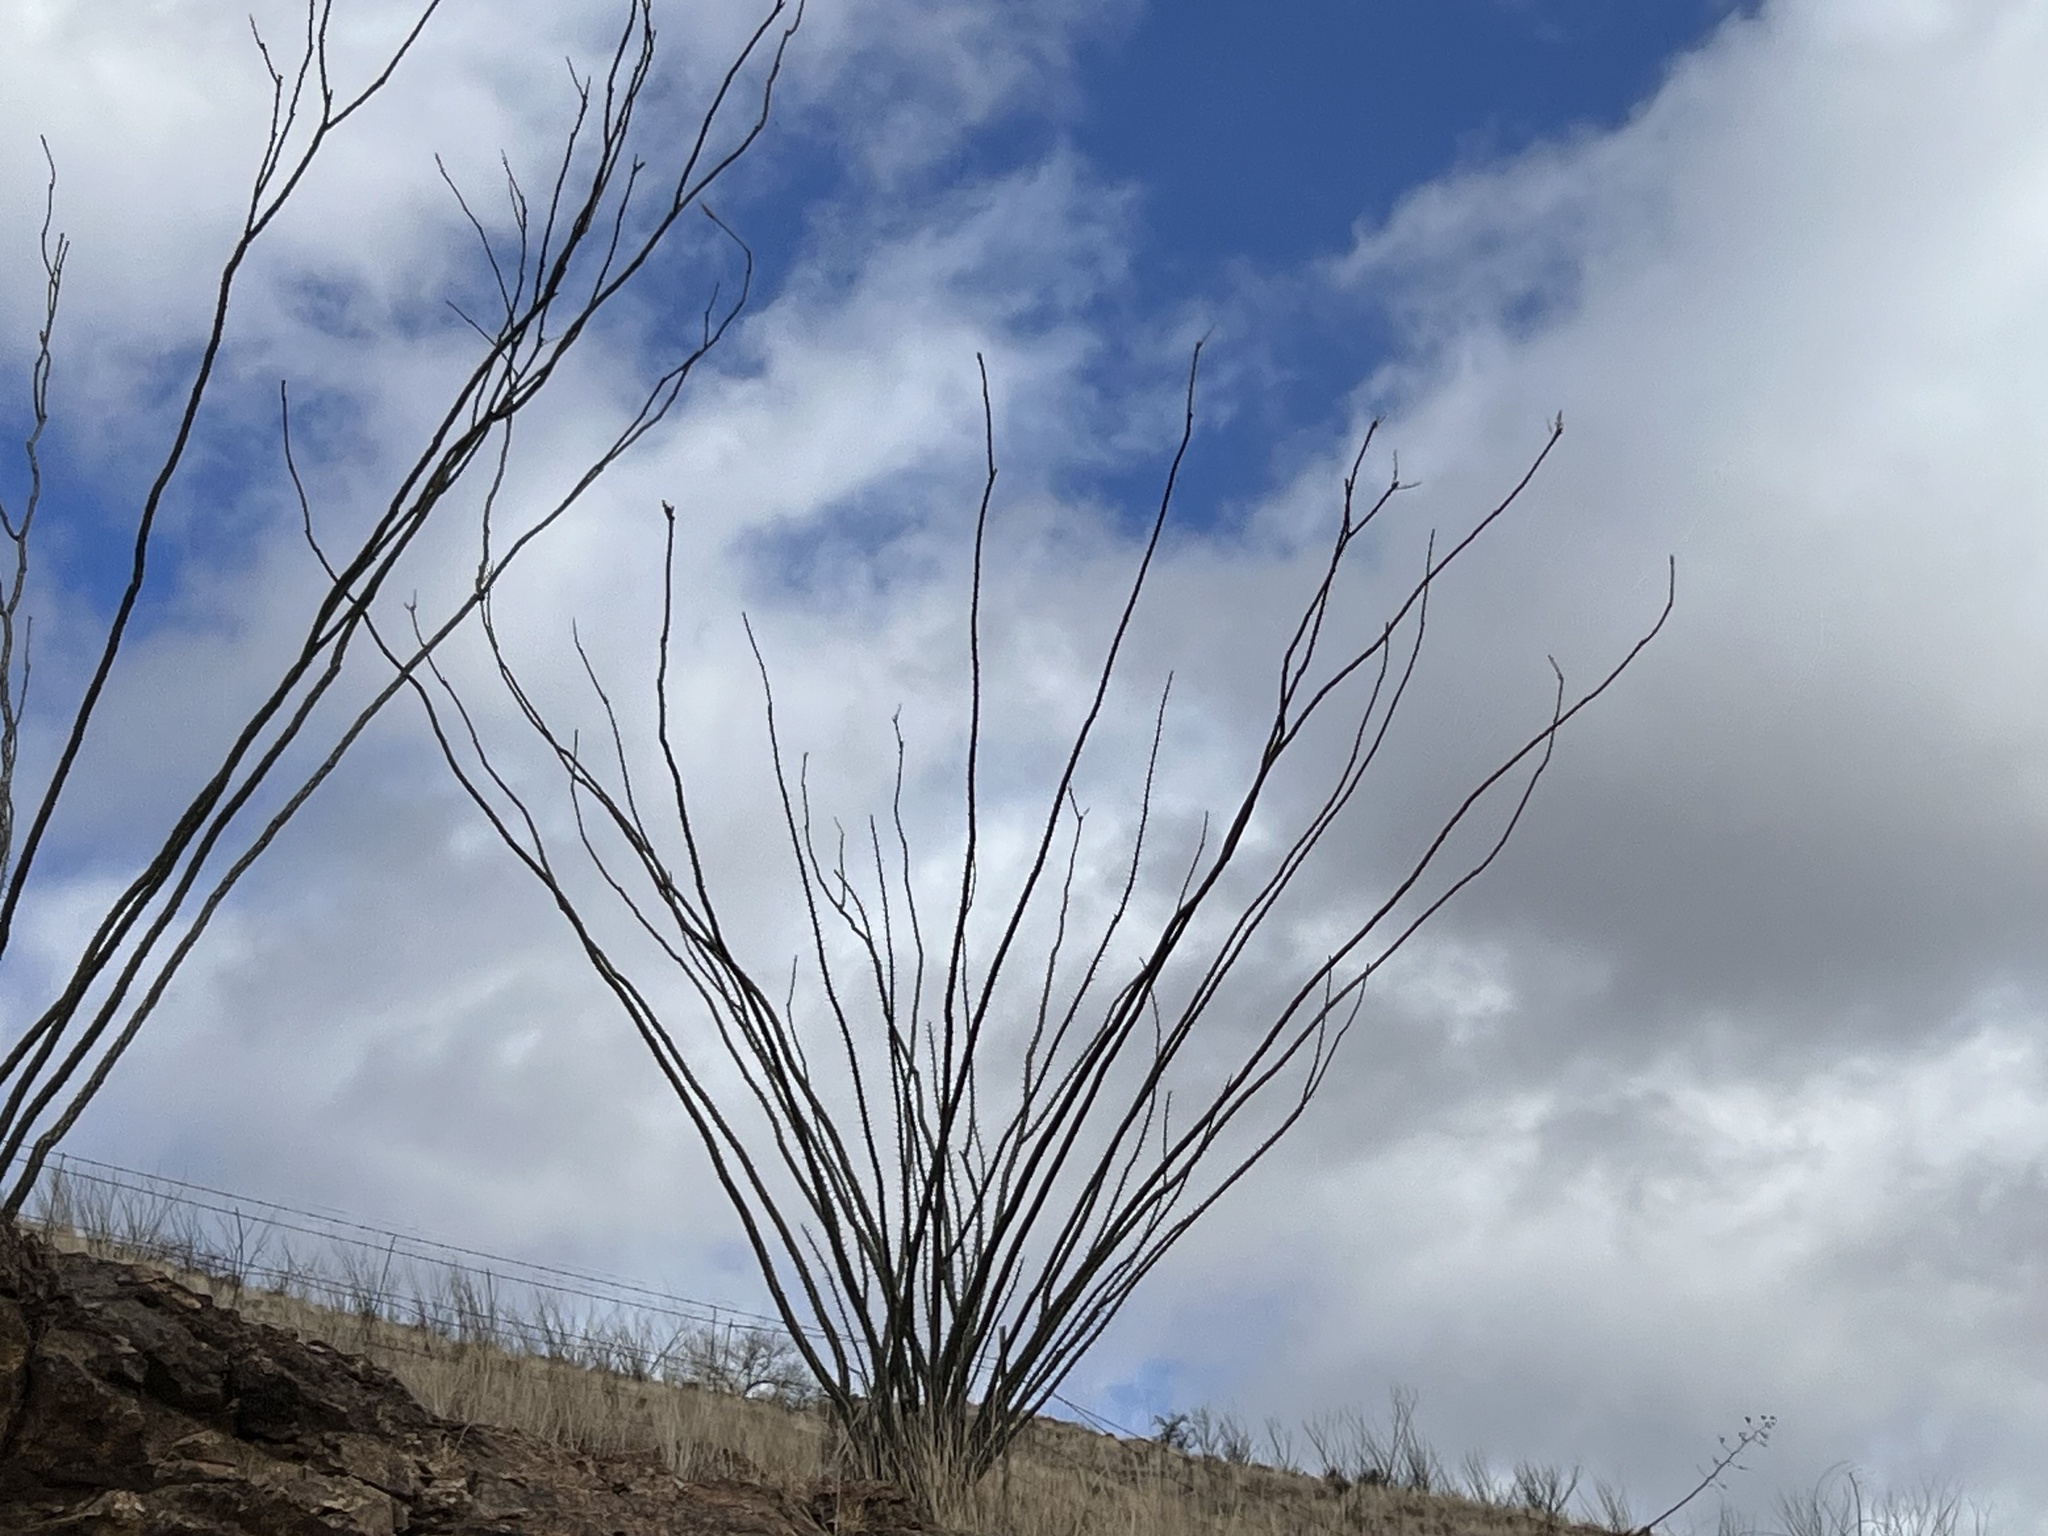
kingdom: Plantae
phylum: Tracheophyta
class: Magnoliopsida
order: Ericales
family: Fouquieriaceae
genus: Fouquieria
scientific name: Fouquieria splendens
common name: Vine-cactus
